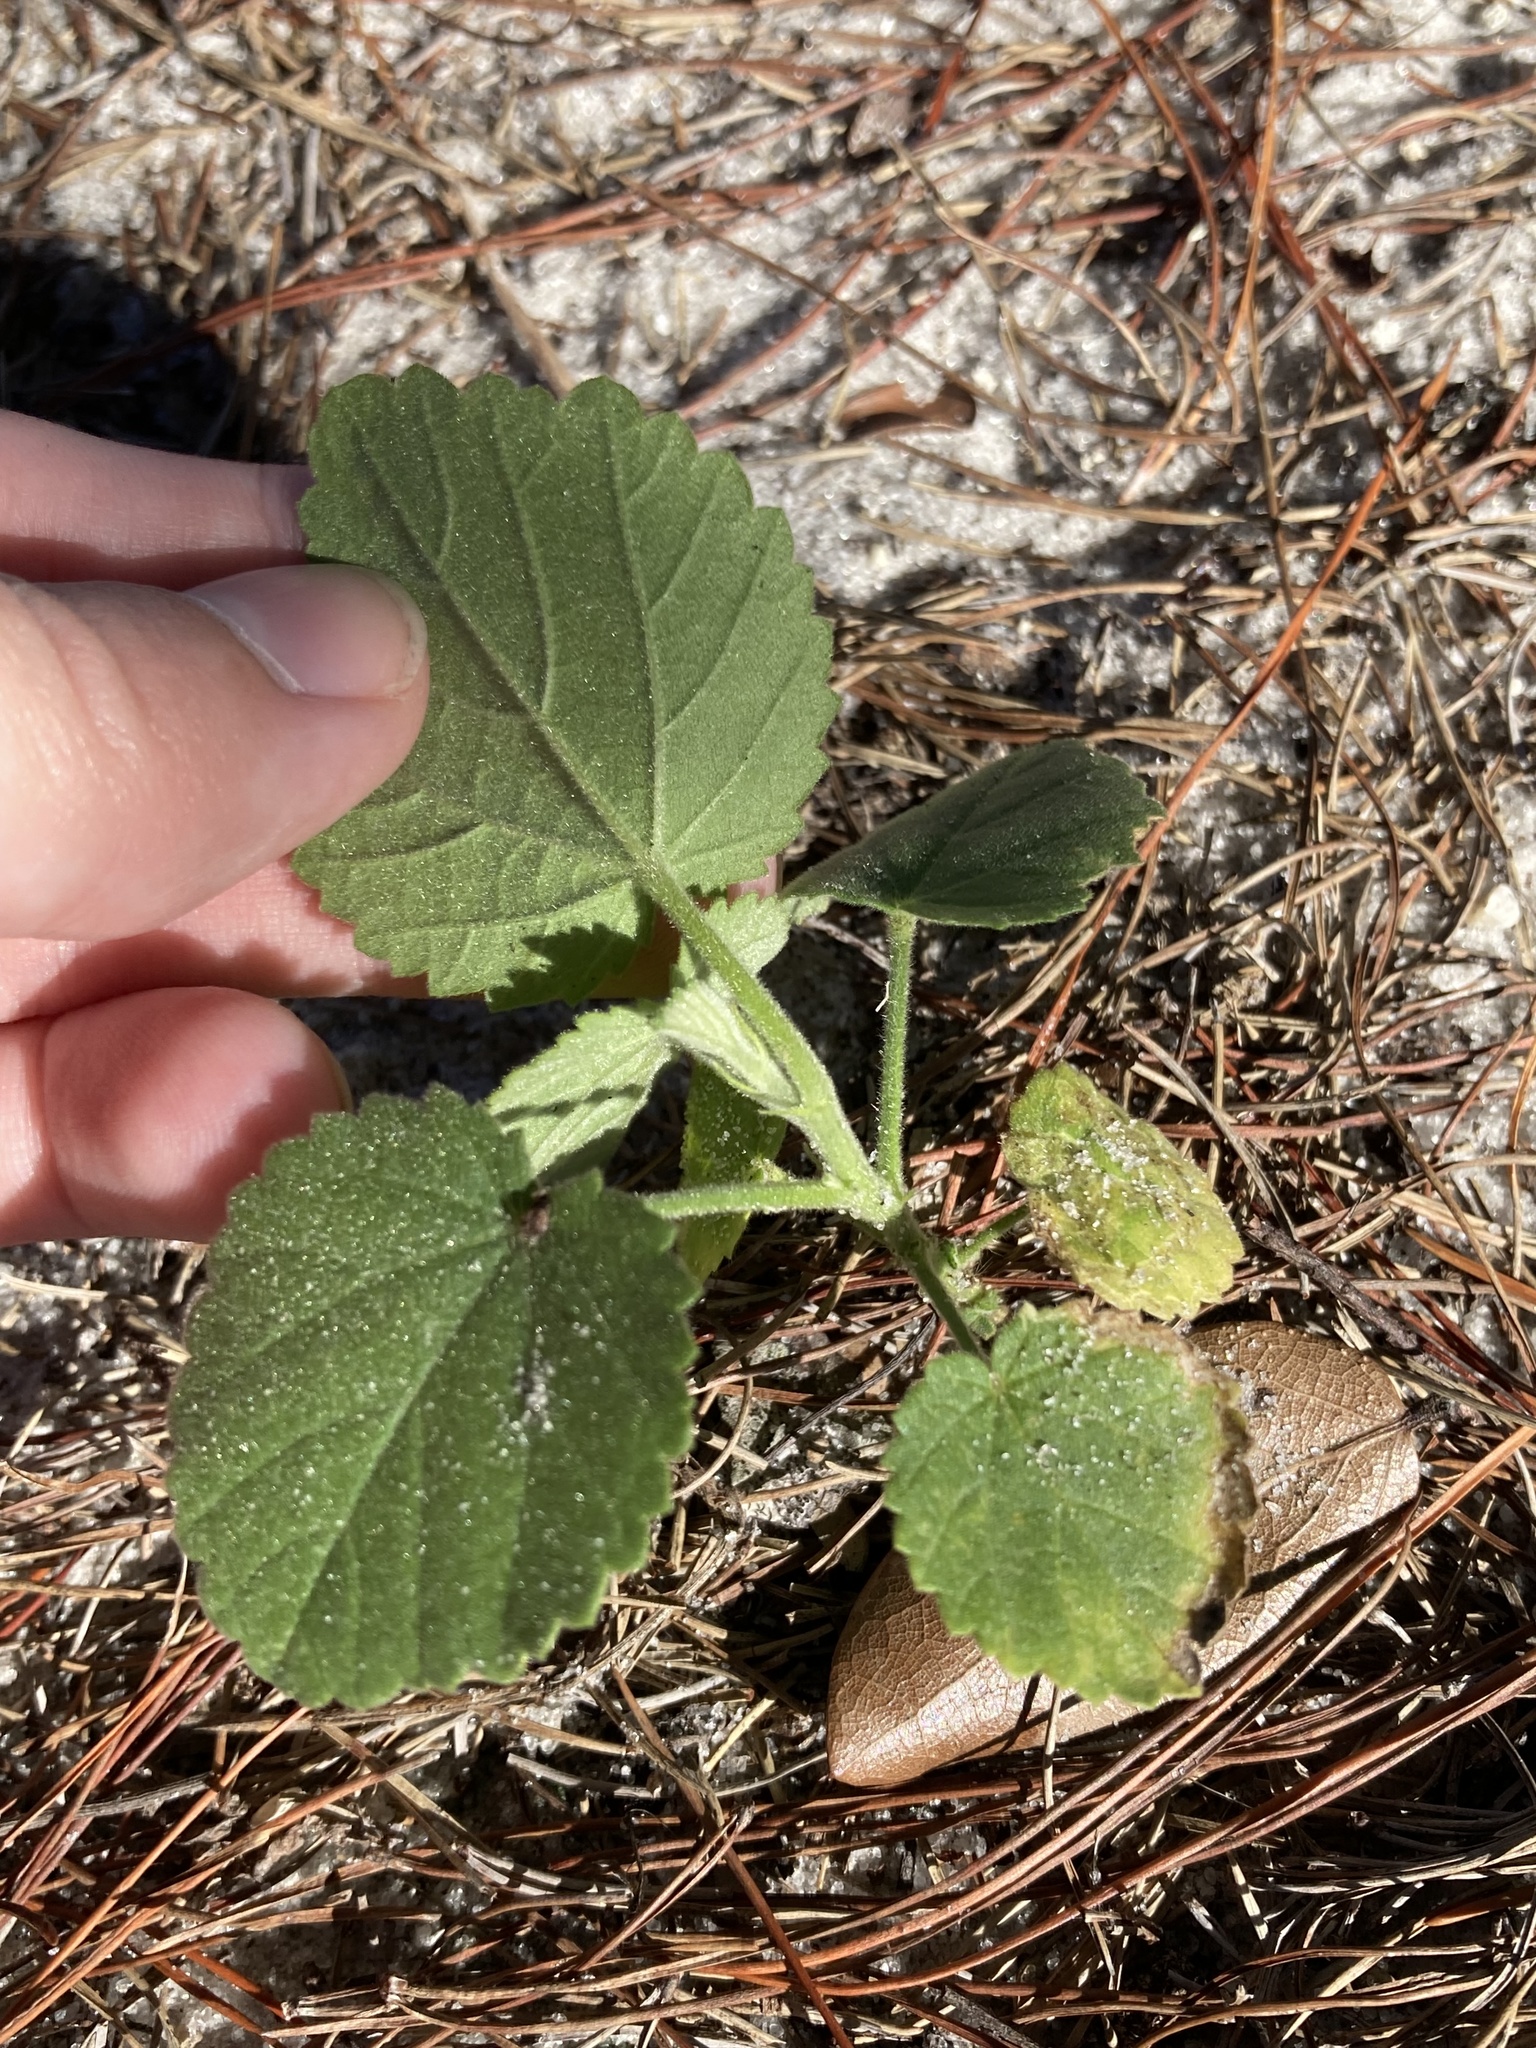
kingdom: Plantae
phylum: Tracheophyta
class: Magnoliopsida
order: Malvales
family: Malvaceae
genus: Sida
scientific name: Sida cordifolia
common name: Ilima
